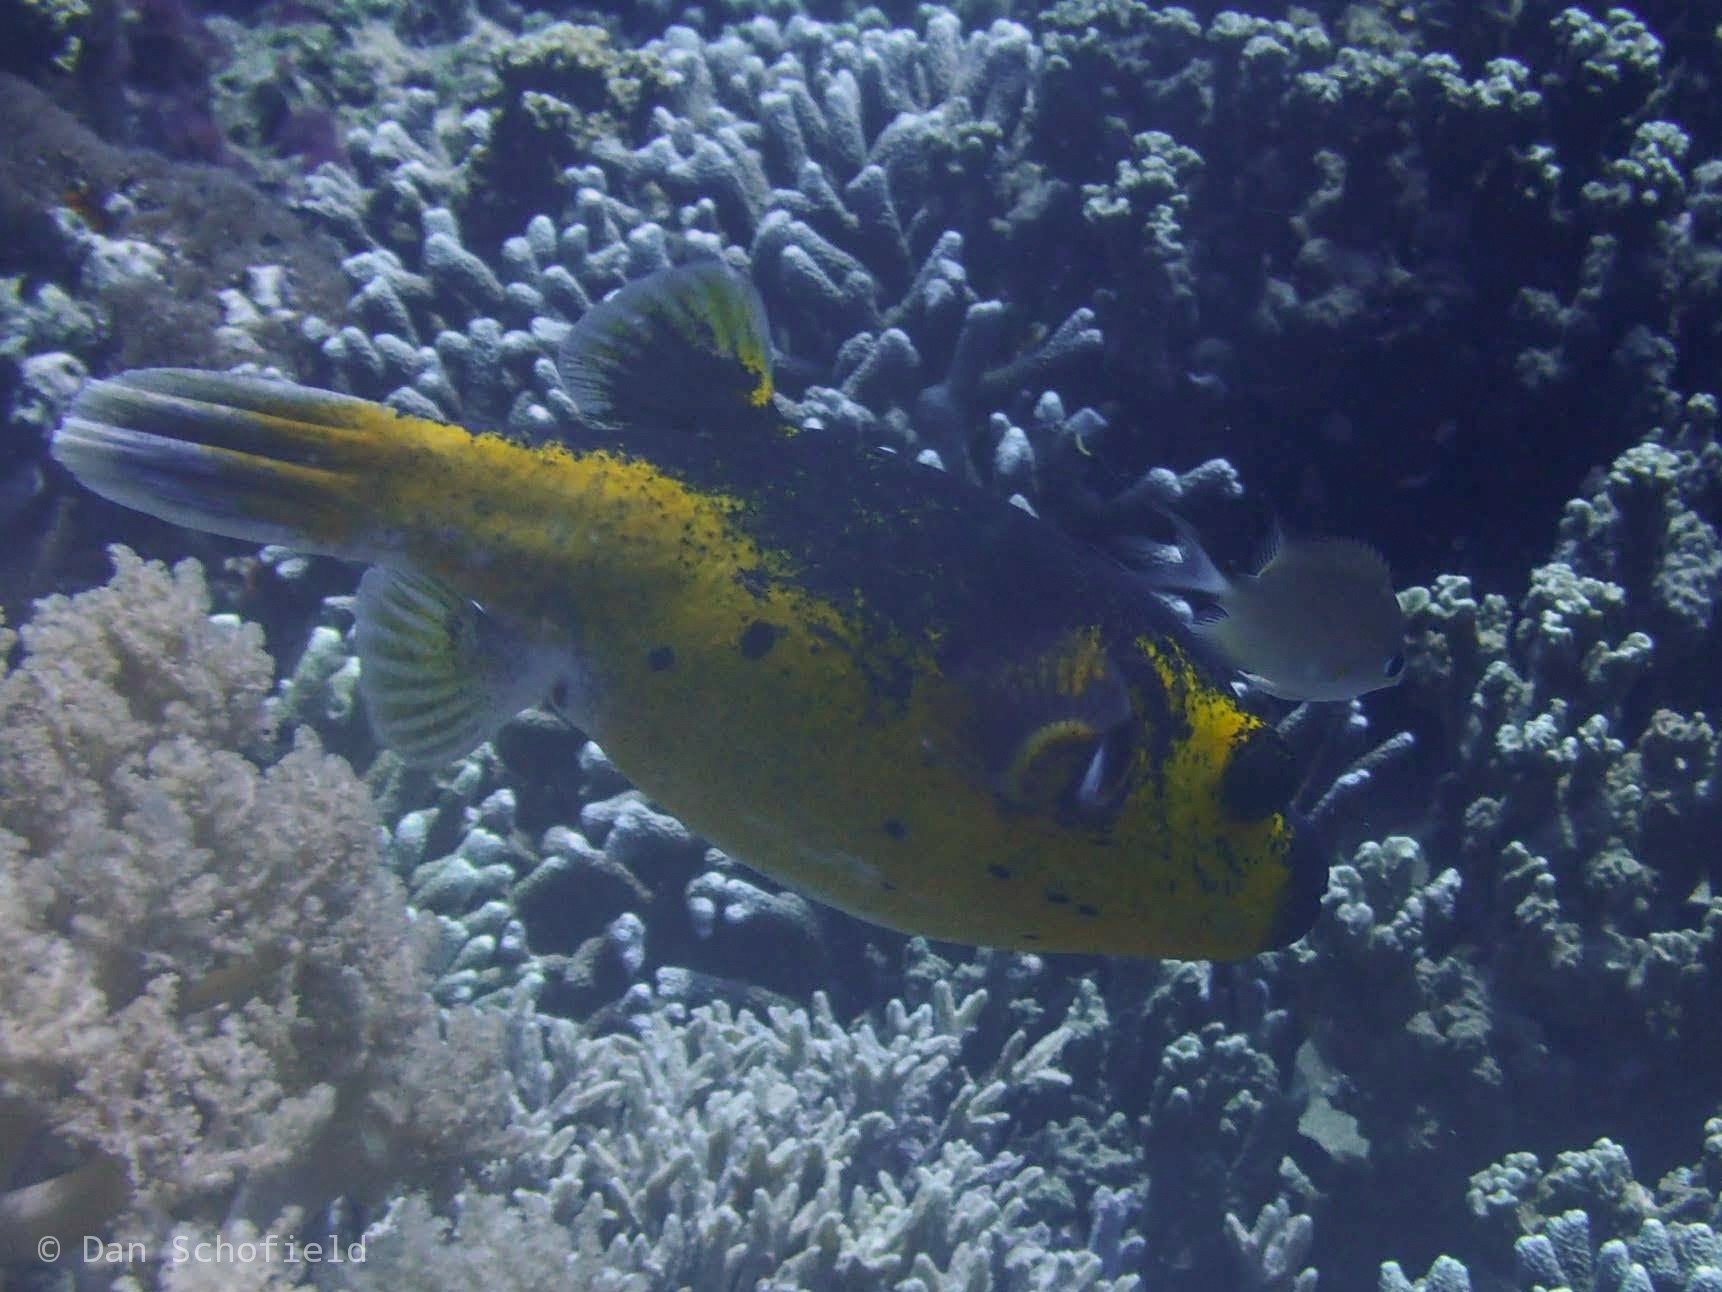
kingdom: Animalia
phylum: Chordata
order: Tetraodontiformes
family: Tetraodontidae
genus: Arothron
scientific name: Arothron nigropunctatus
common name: Black spotted blow fish
